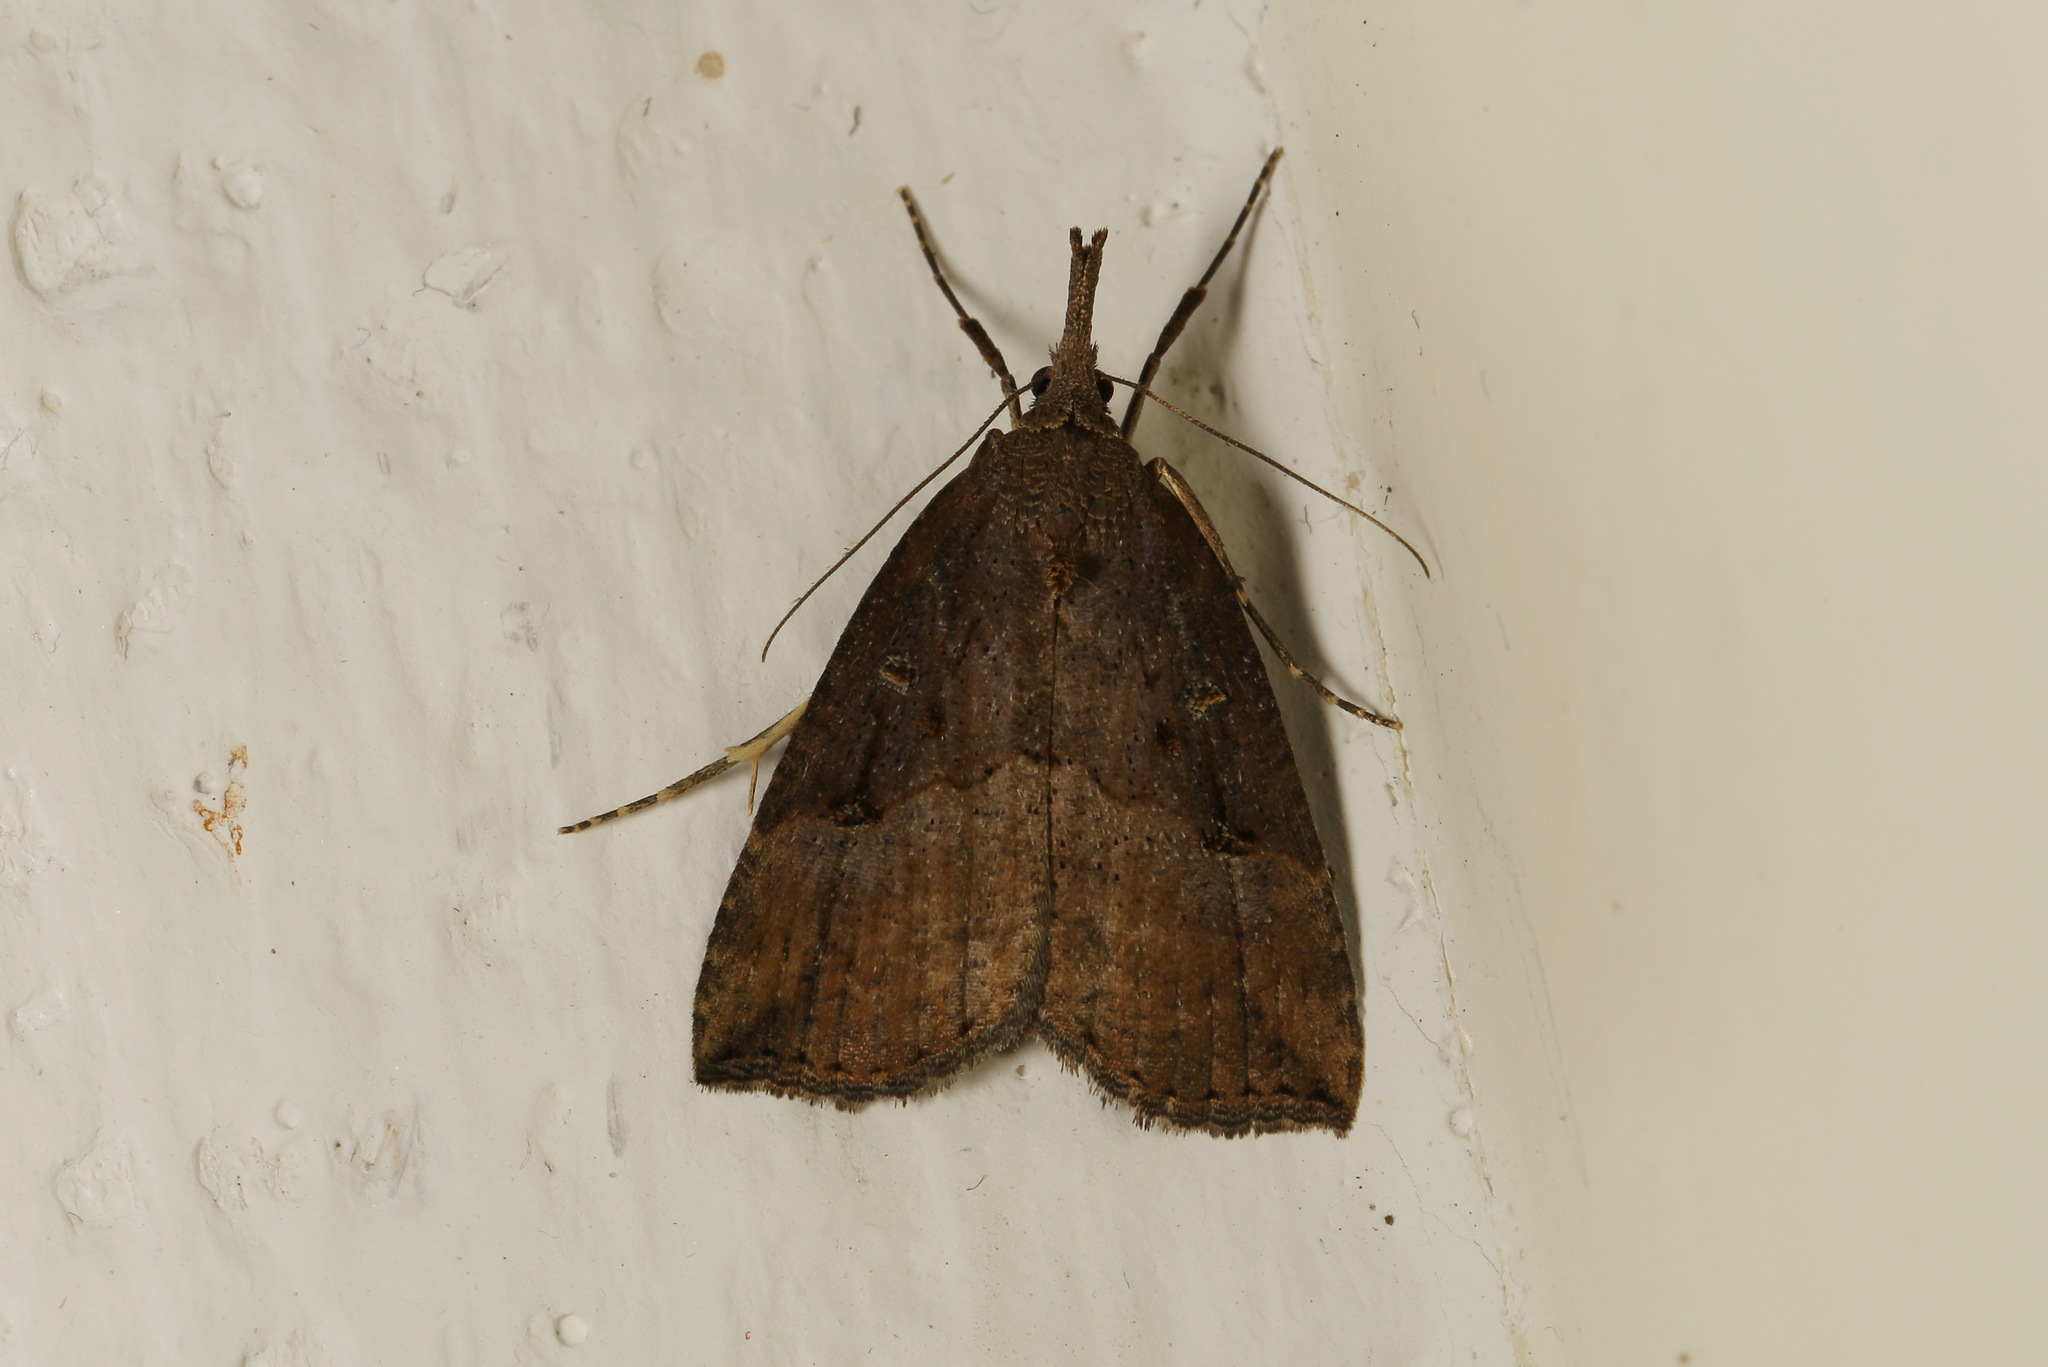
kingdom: Animalia
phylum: Arthropoda
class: Insecta
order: Lepidoptera
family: Erebidae
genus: Hypena
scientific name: Hypena rostralis
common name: Buttoned snout
